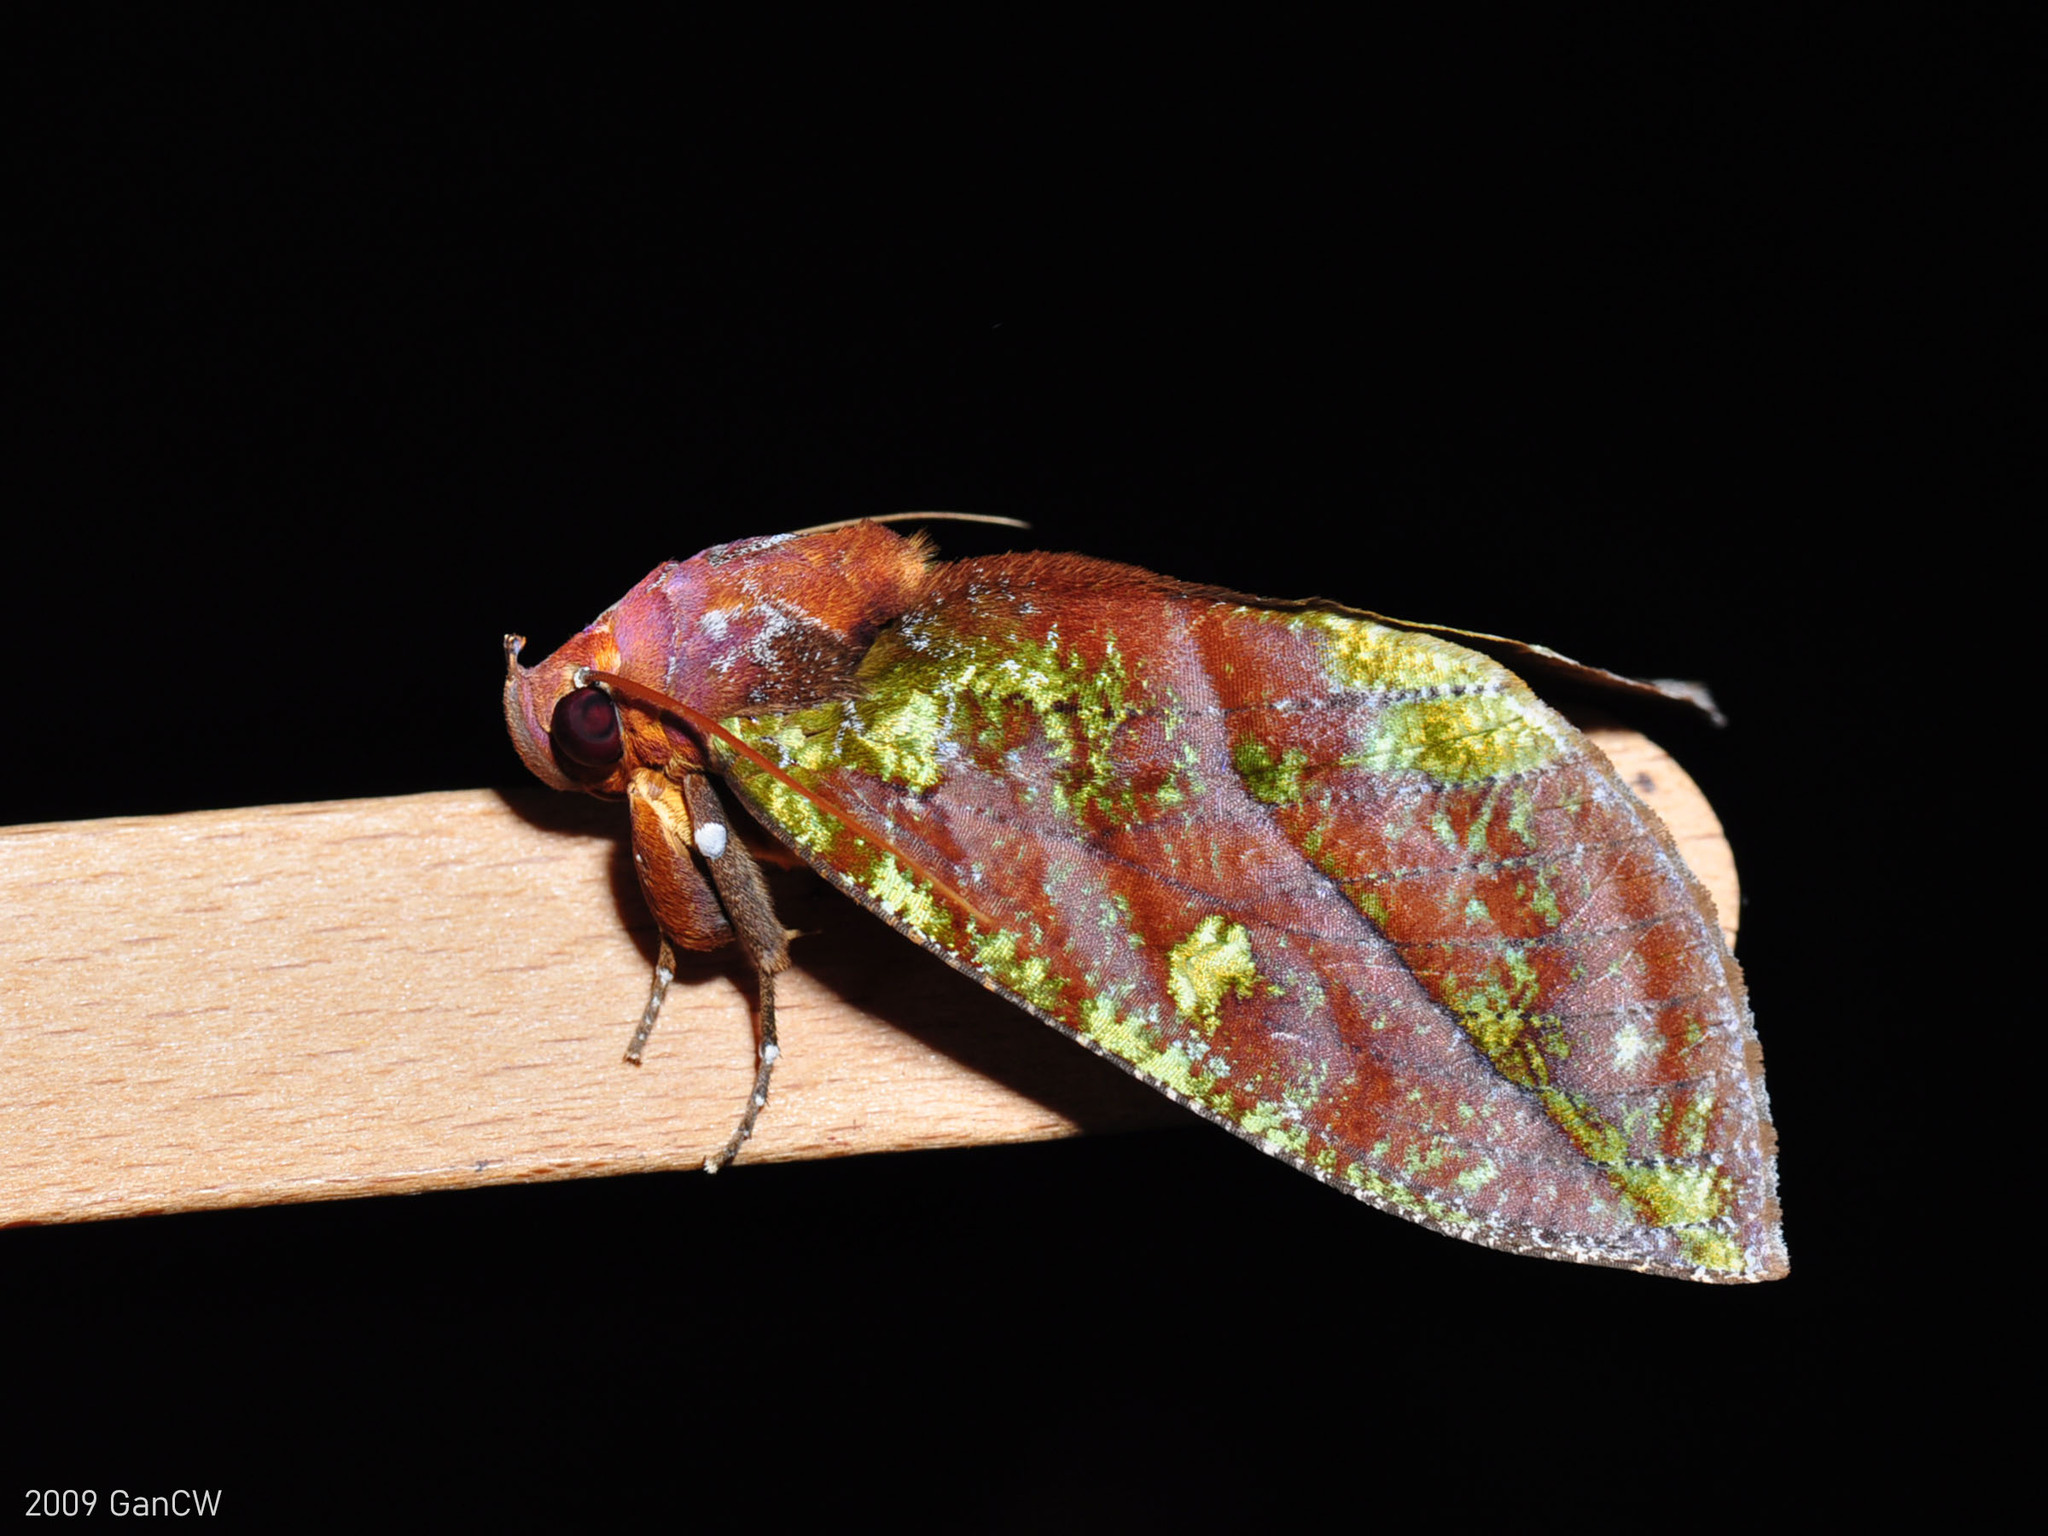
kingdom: Animalia
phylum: Arthropoda
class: Insecta
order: Lepidoptera
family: Erebidae
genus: Eudocima
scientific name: Eudocima mionopastea
